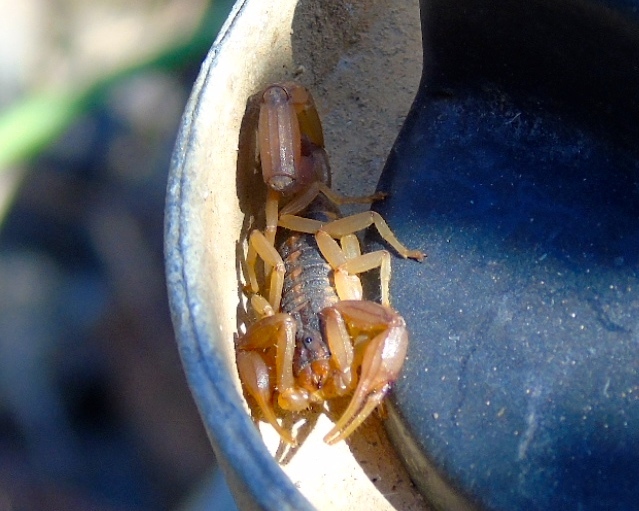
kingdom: Animalia
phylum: Arthropoda
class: Arachnida
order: Scorpiones
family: Buthidae
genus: Centruroides
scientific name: Centruroides baldazoi
